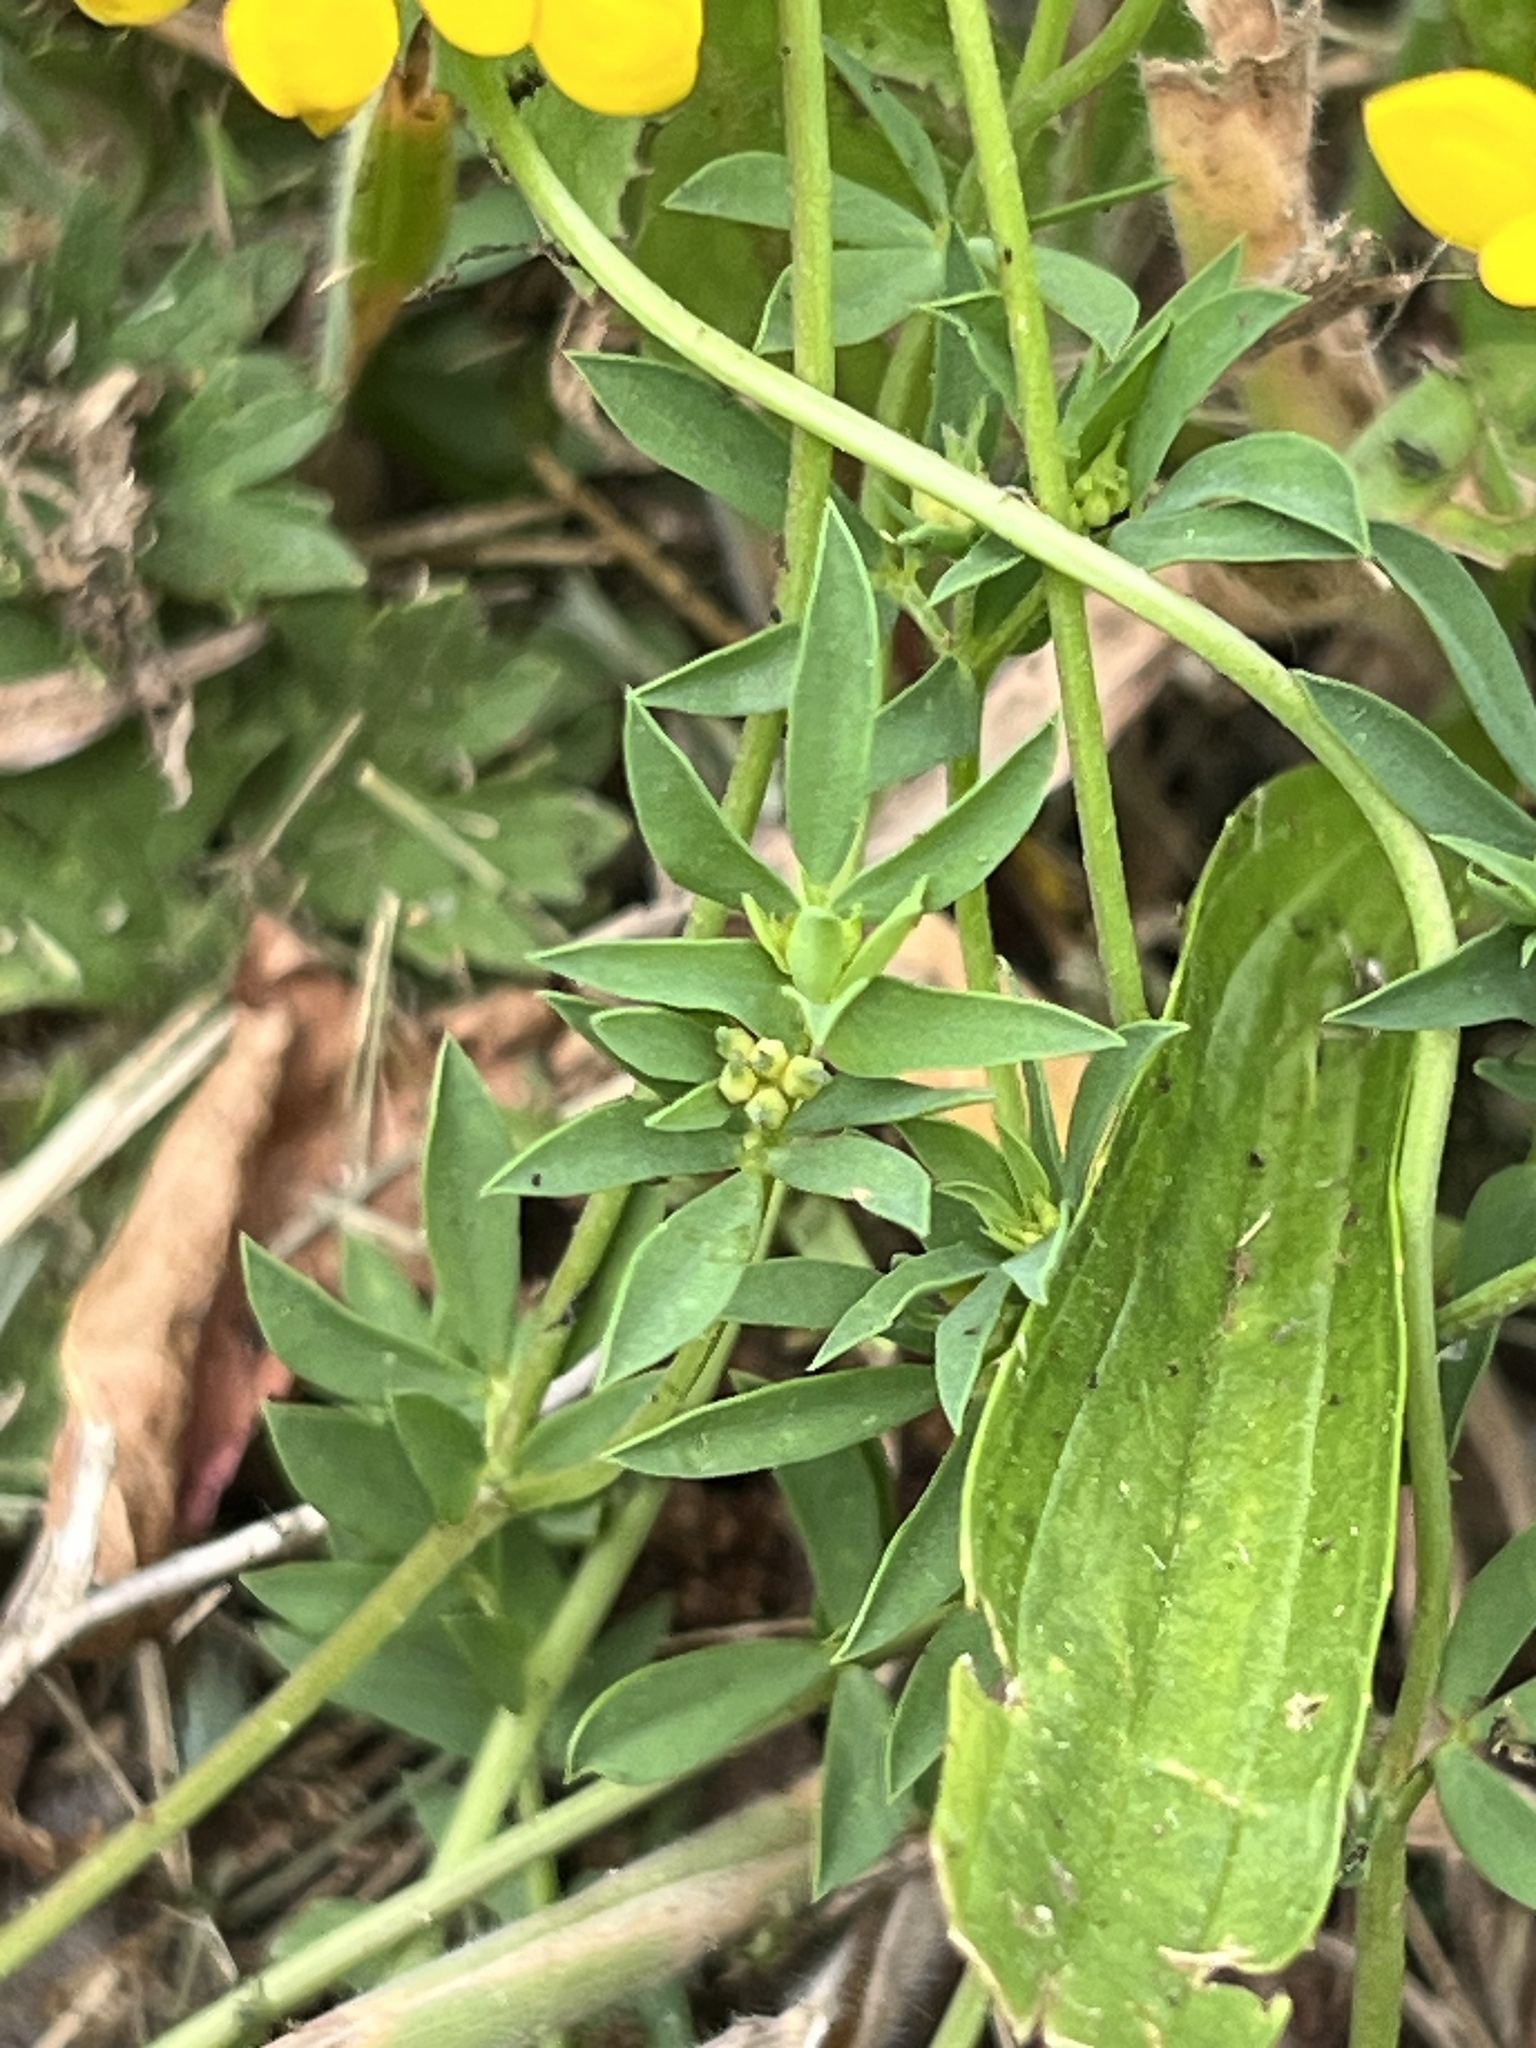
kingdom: Plantae
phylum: Tracheophyta
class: Magnoliopsida
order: Fabales
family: Fabaceae
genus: Lotus
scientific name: Lotus tenuis
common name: Narrow-leaved bird's-foot-trefoil
